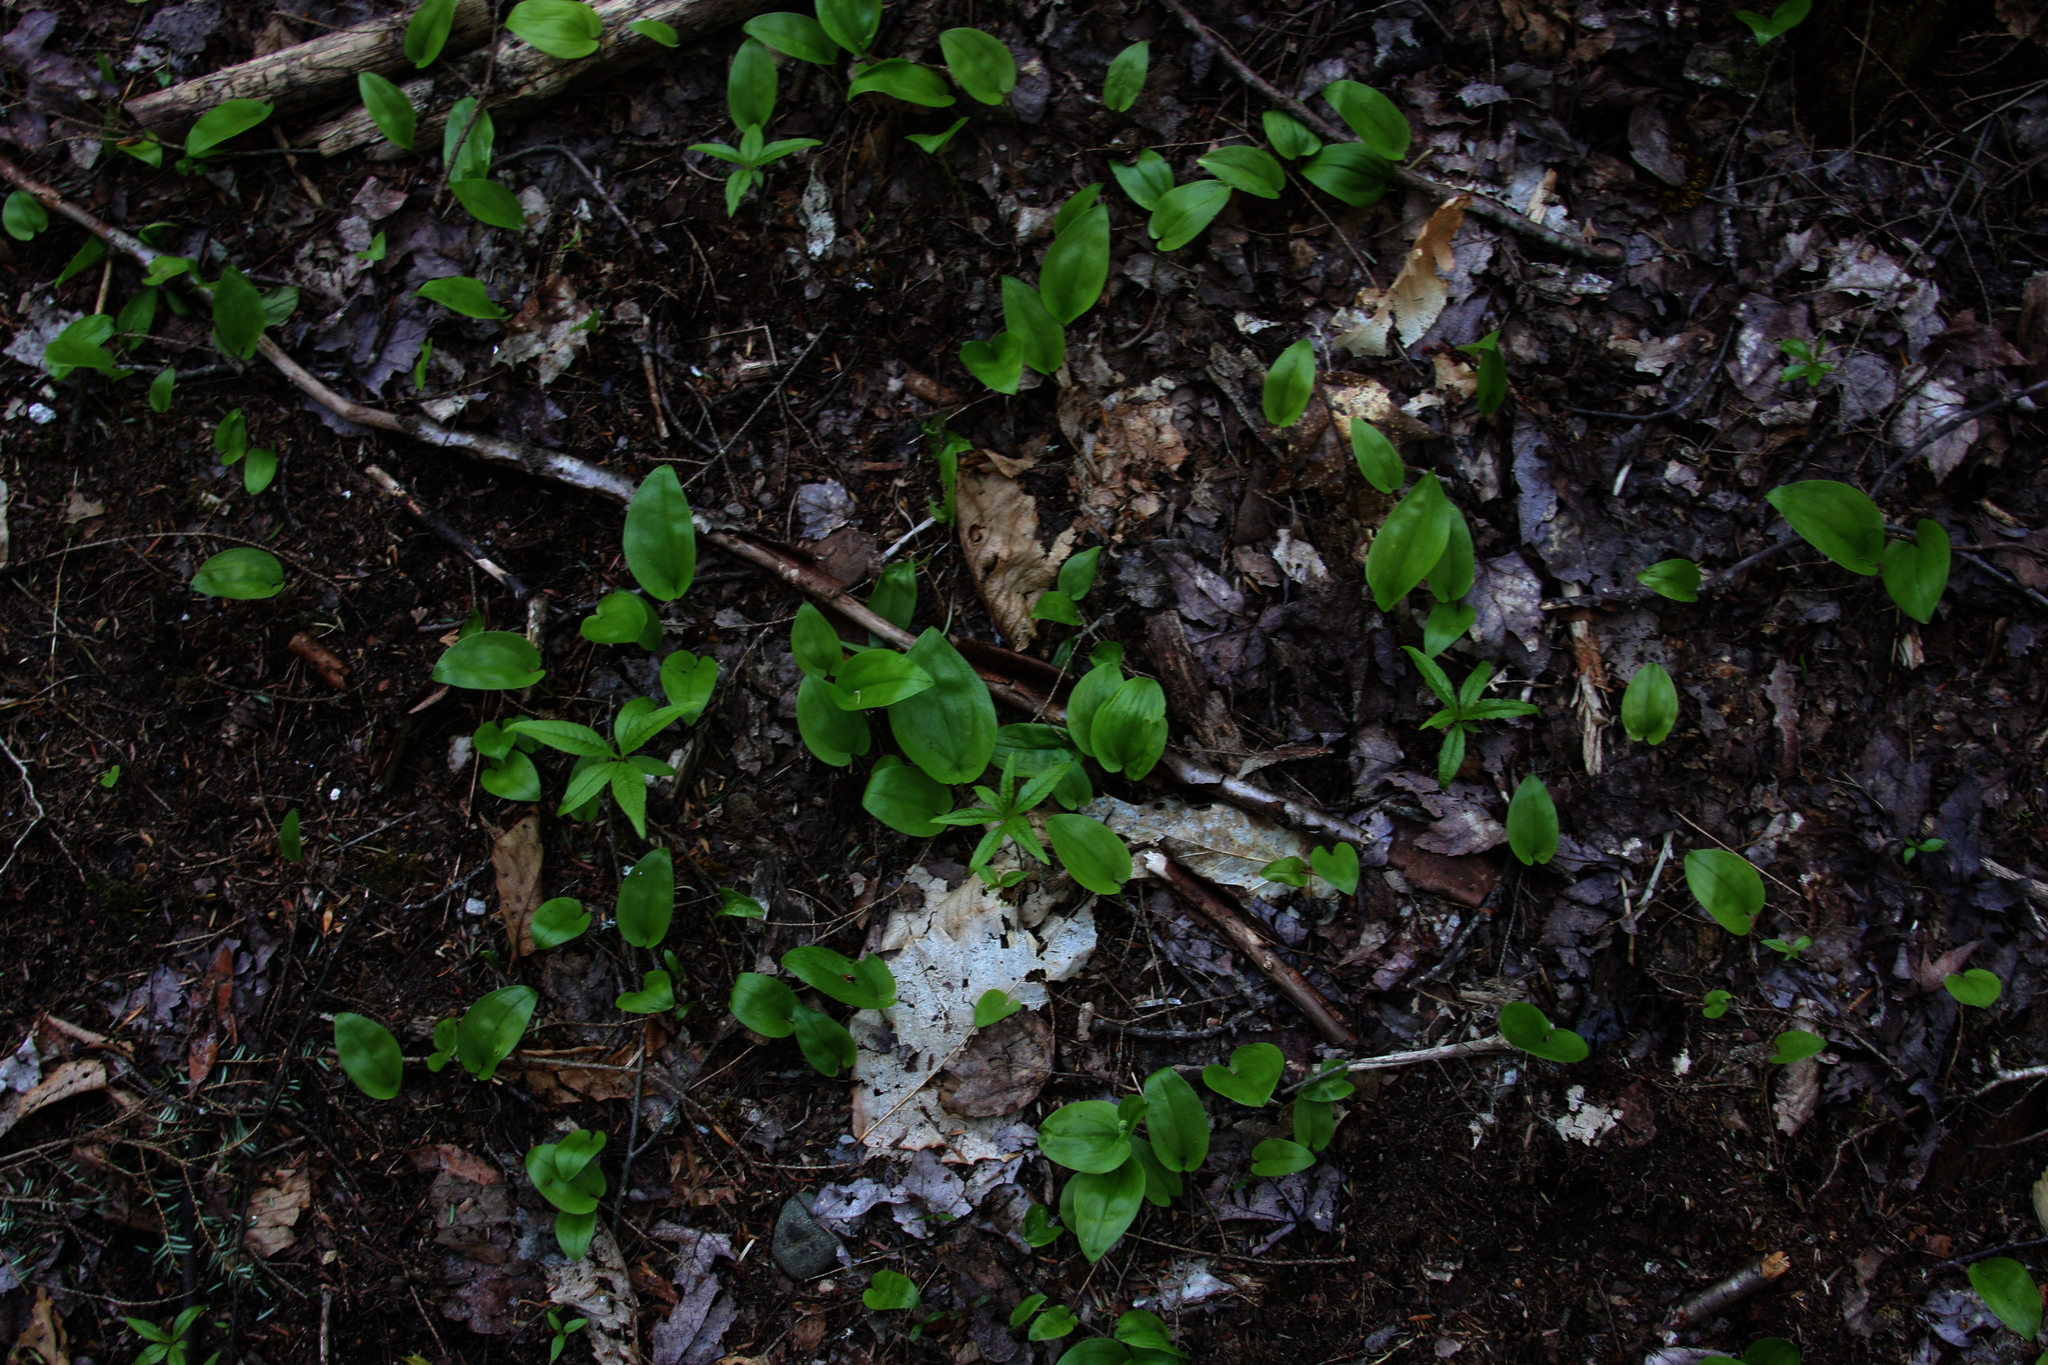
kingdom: Plantae
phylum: Tracheophyta
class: Liliopsida
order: Asparagales
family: Asparagaceae
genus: Maianthemum
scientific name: Maianthemum canadense
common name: False lily-of-the-valley
